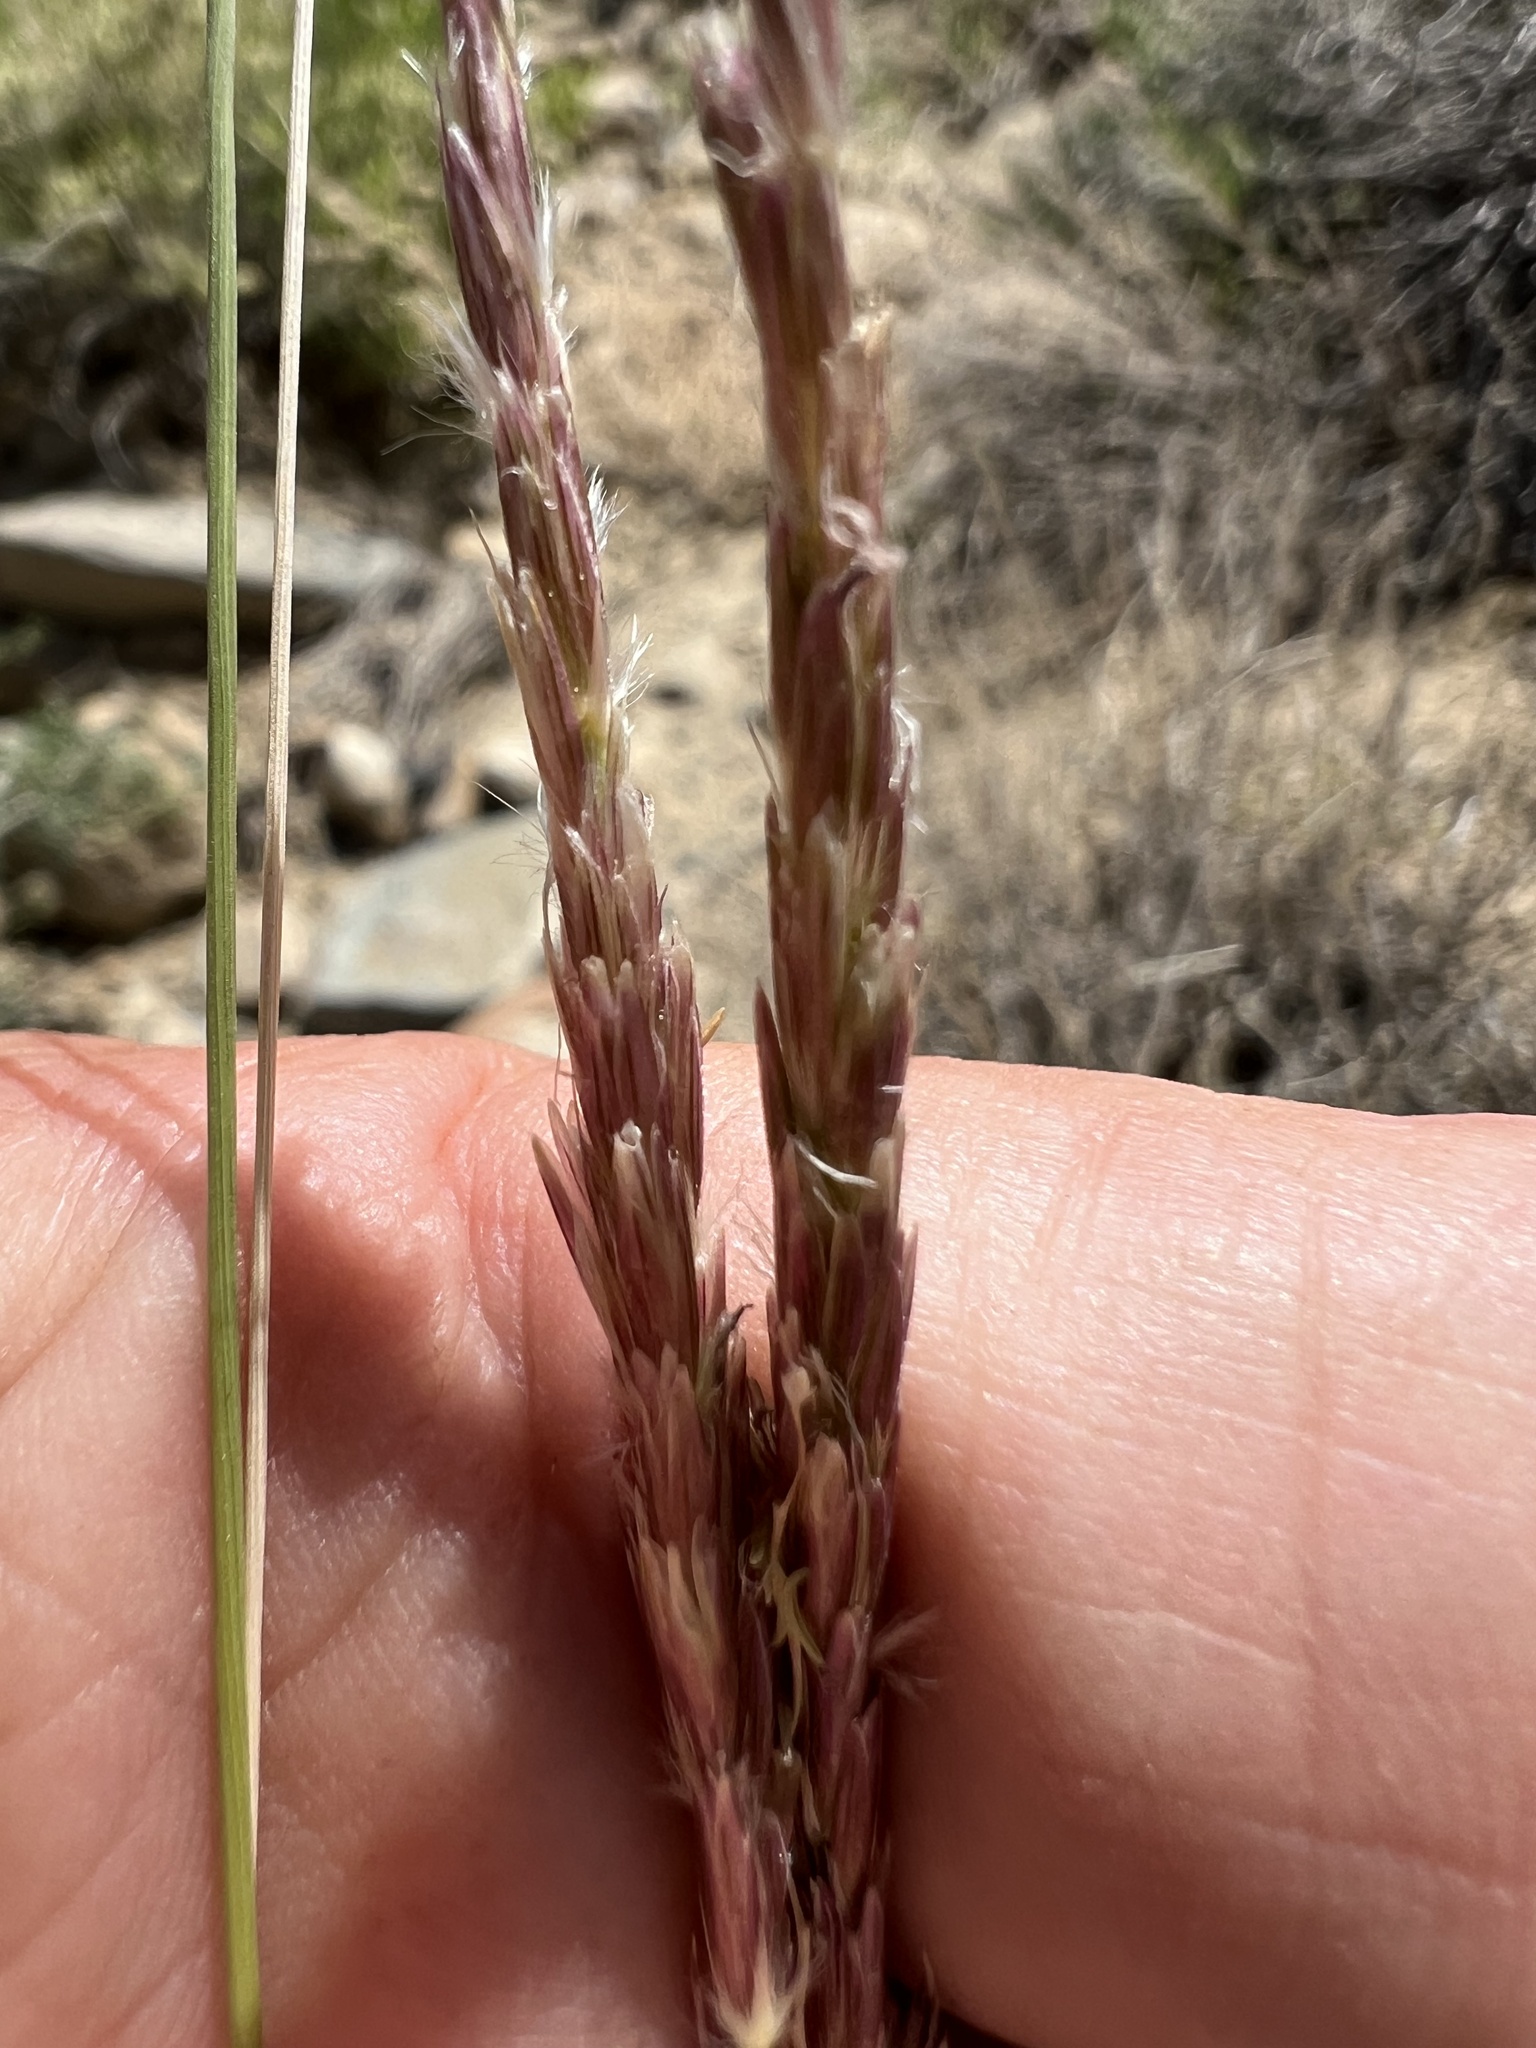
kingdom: Plantae
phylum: Tracheophyta
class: Liliopsida
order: Poales
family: Poaceae
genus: Hilaria
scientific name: Hilaria jamesii
